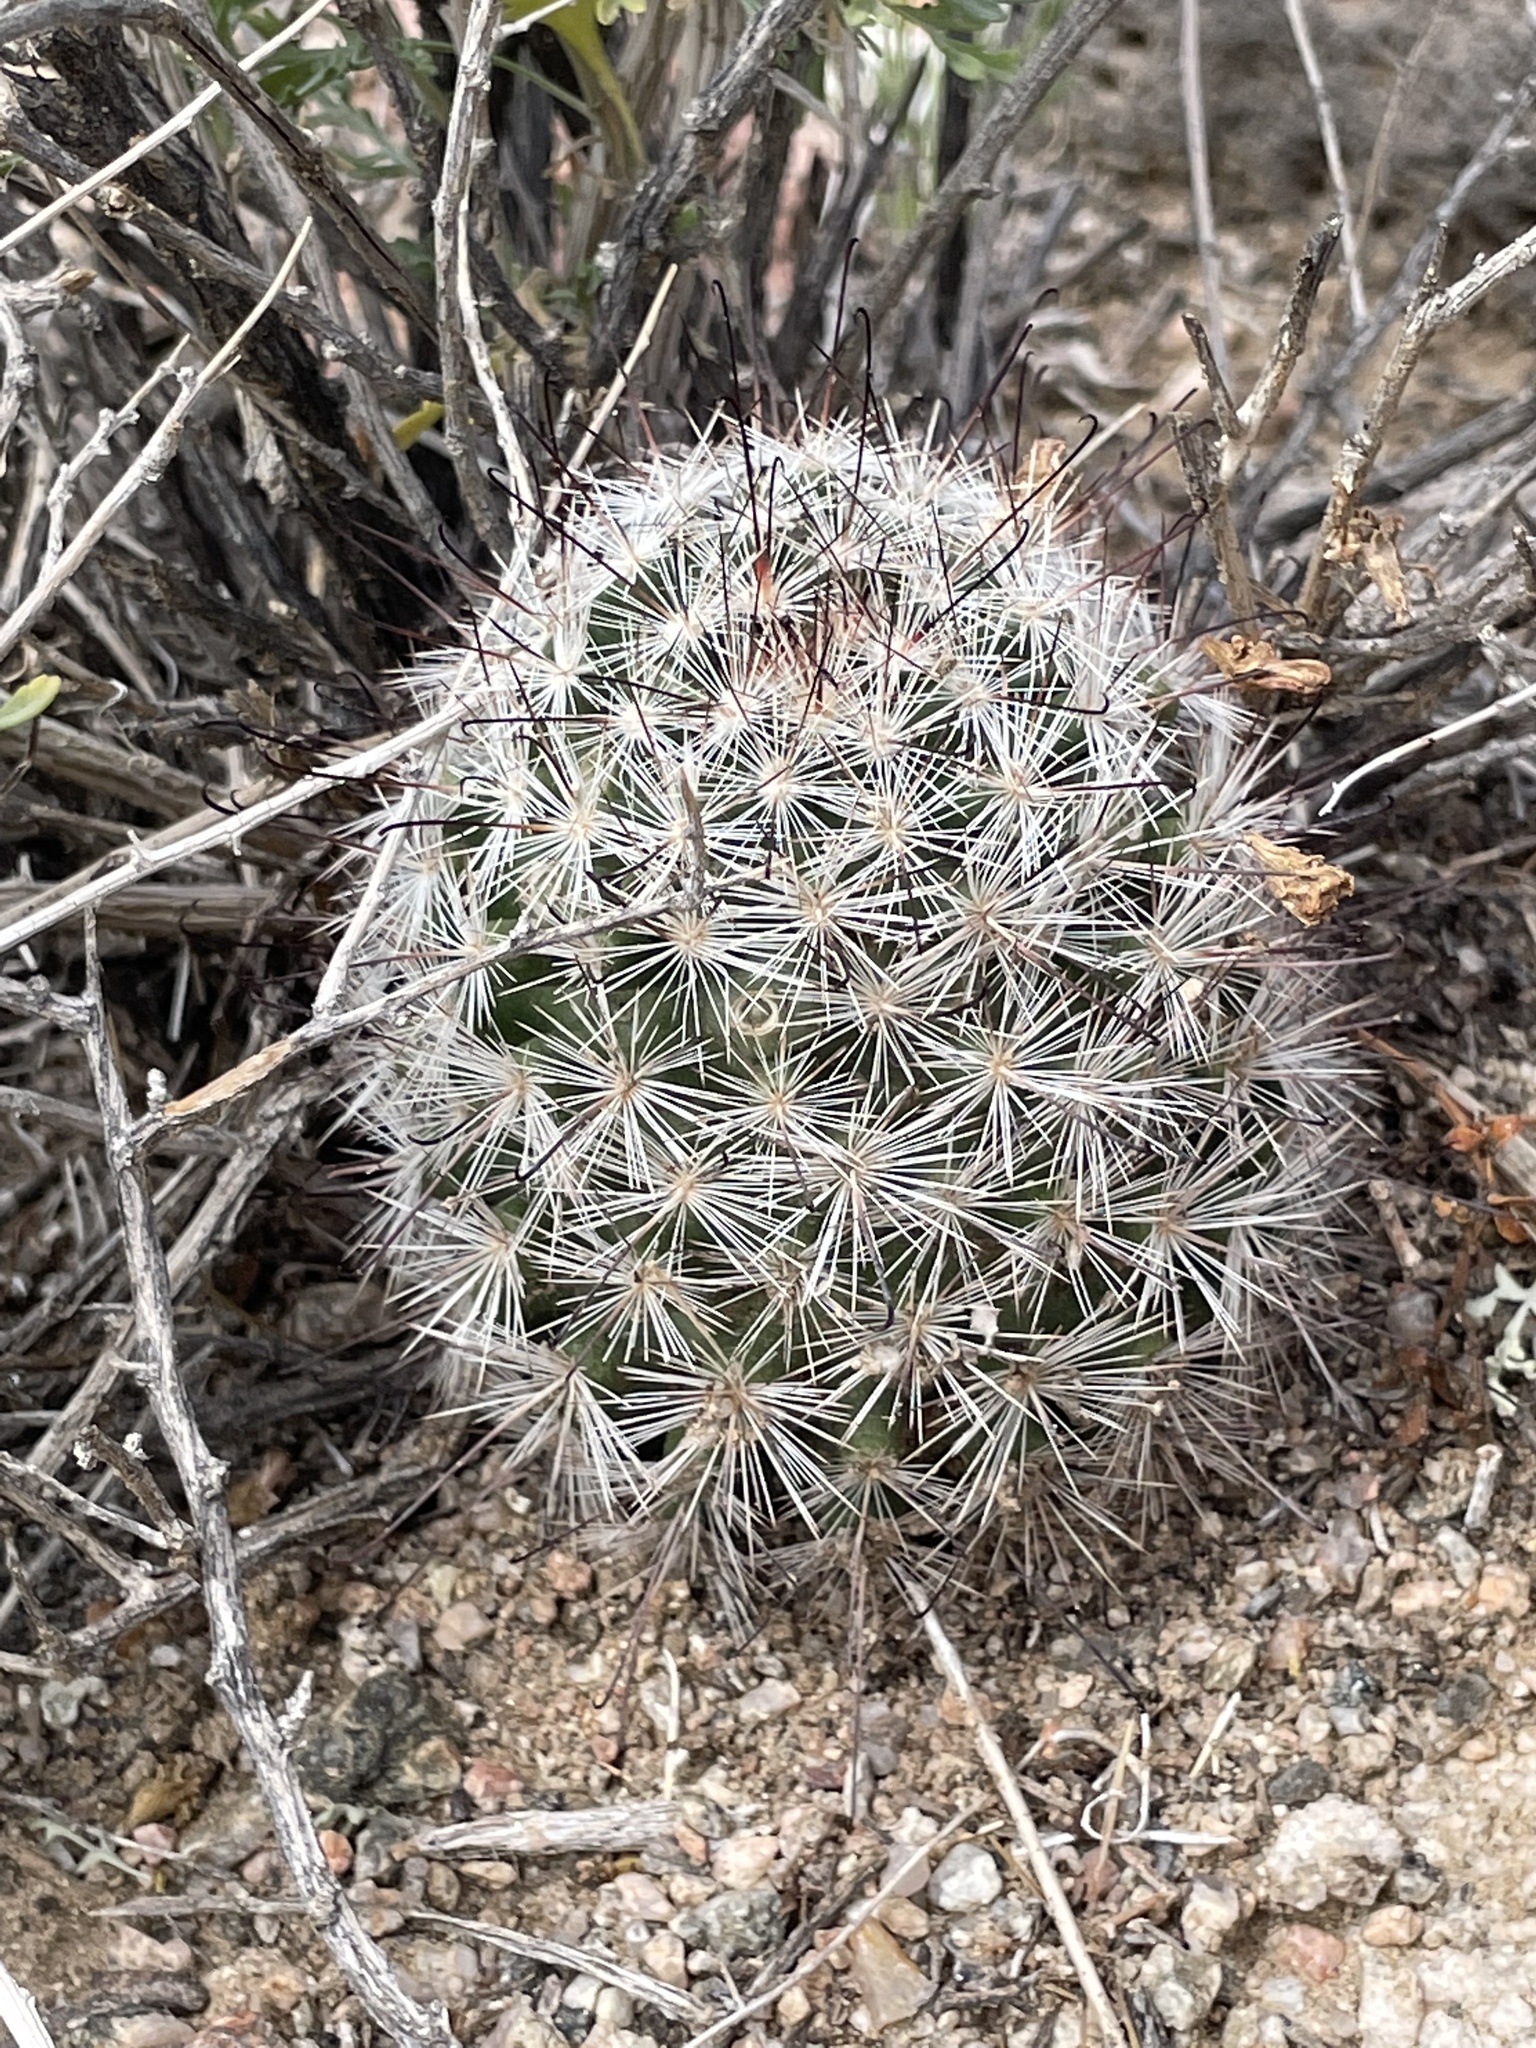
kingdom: Plantae
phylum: Tracheophyta
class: Magnoliopsida
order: Caryophyllales
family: Cactaceae
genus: Cochemiea
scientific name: Cochemiea tetrancistra
